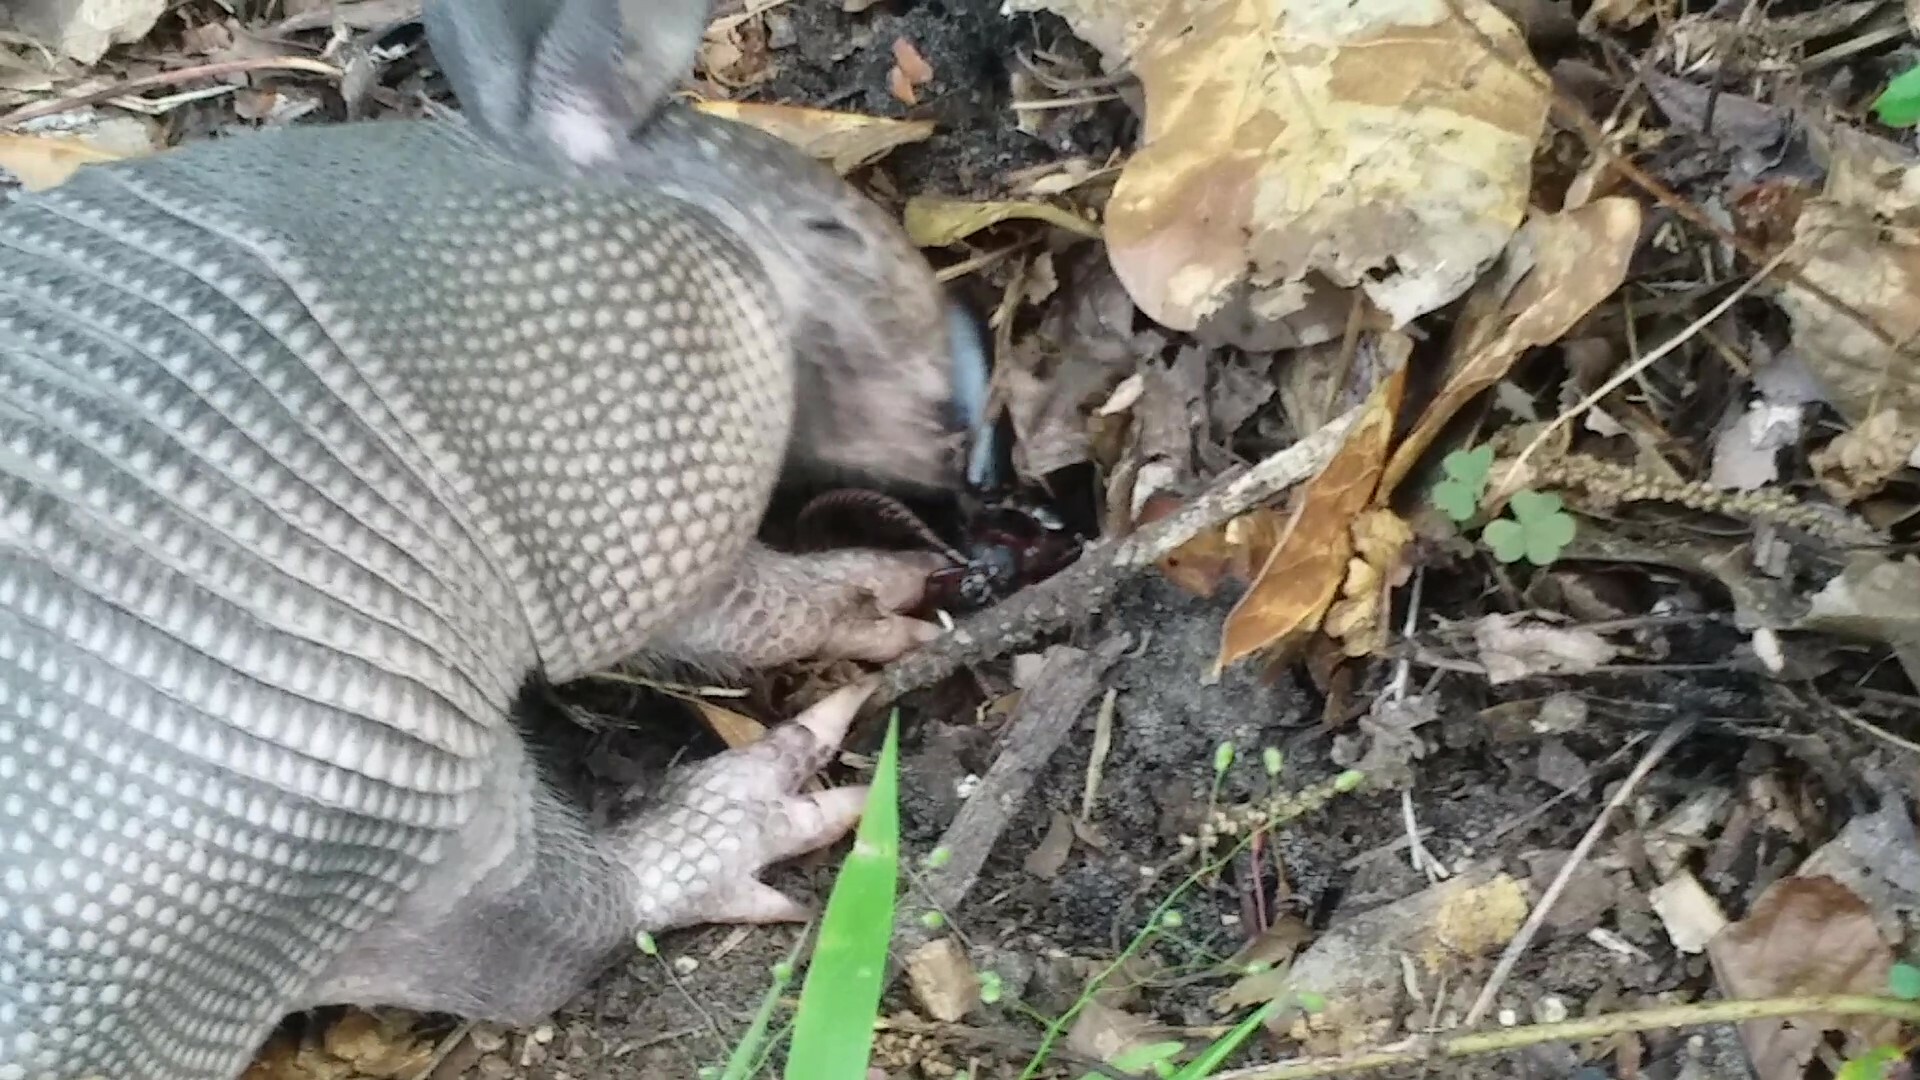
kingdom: Animalia
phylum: Chordata
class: Mammalia
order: Cingulata
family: Dasypodidae
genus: Dasypus
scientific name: Dasypus novemcinctus
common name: Nine-banded armadillo
